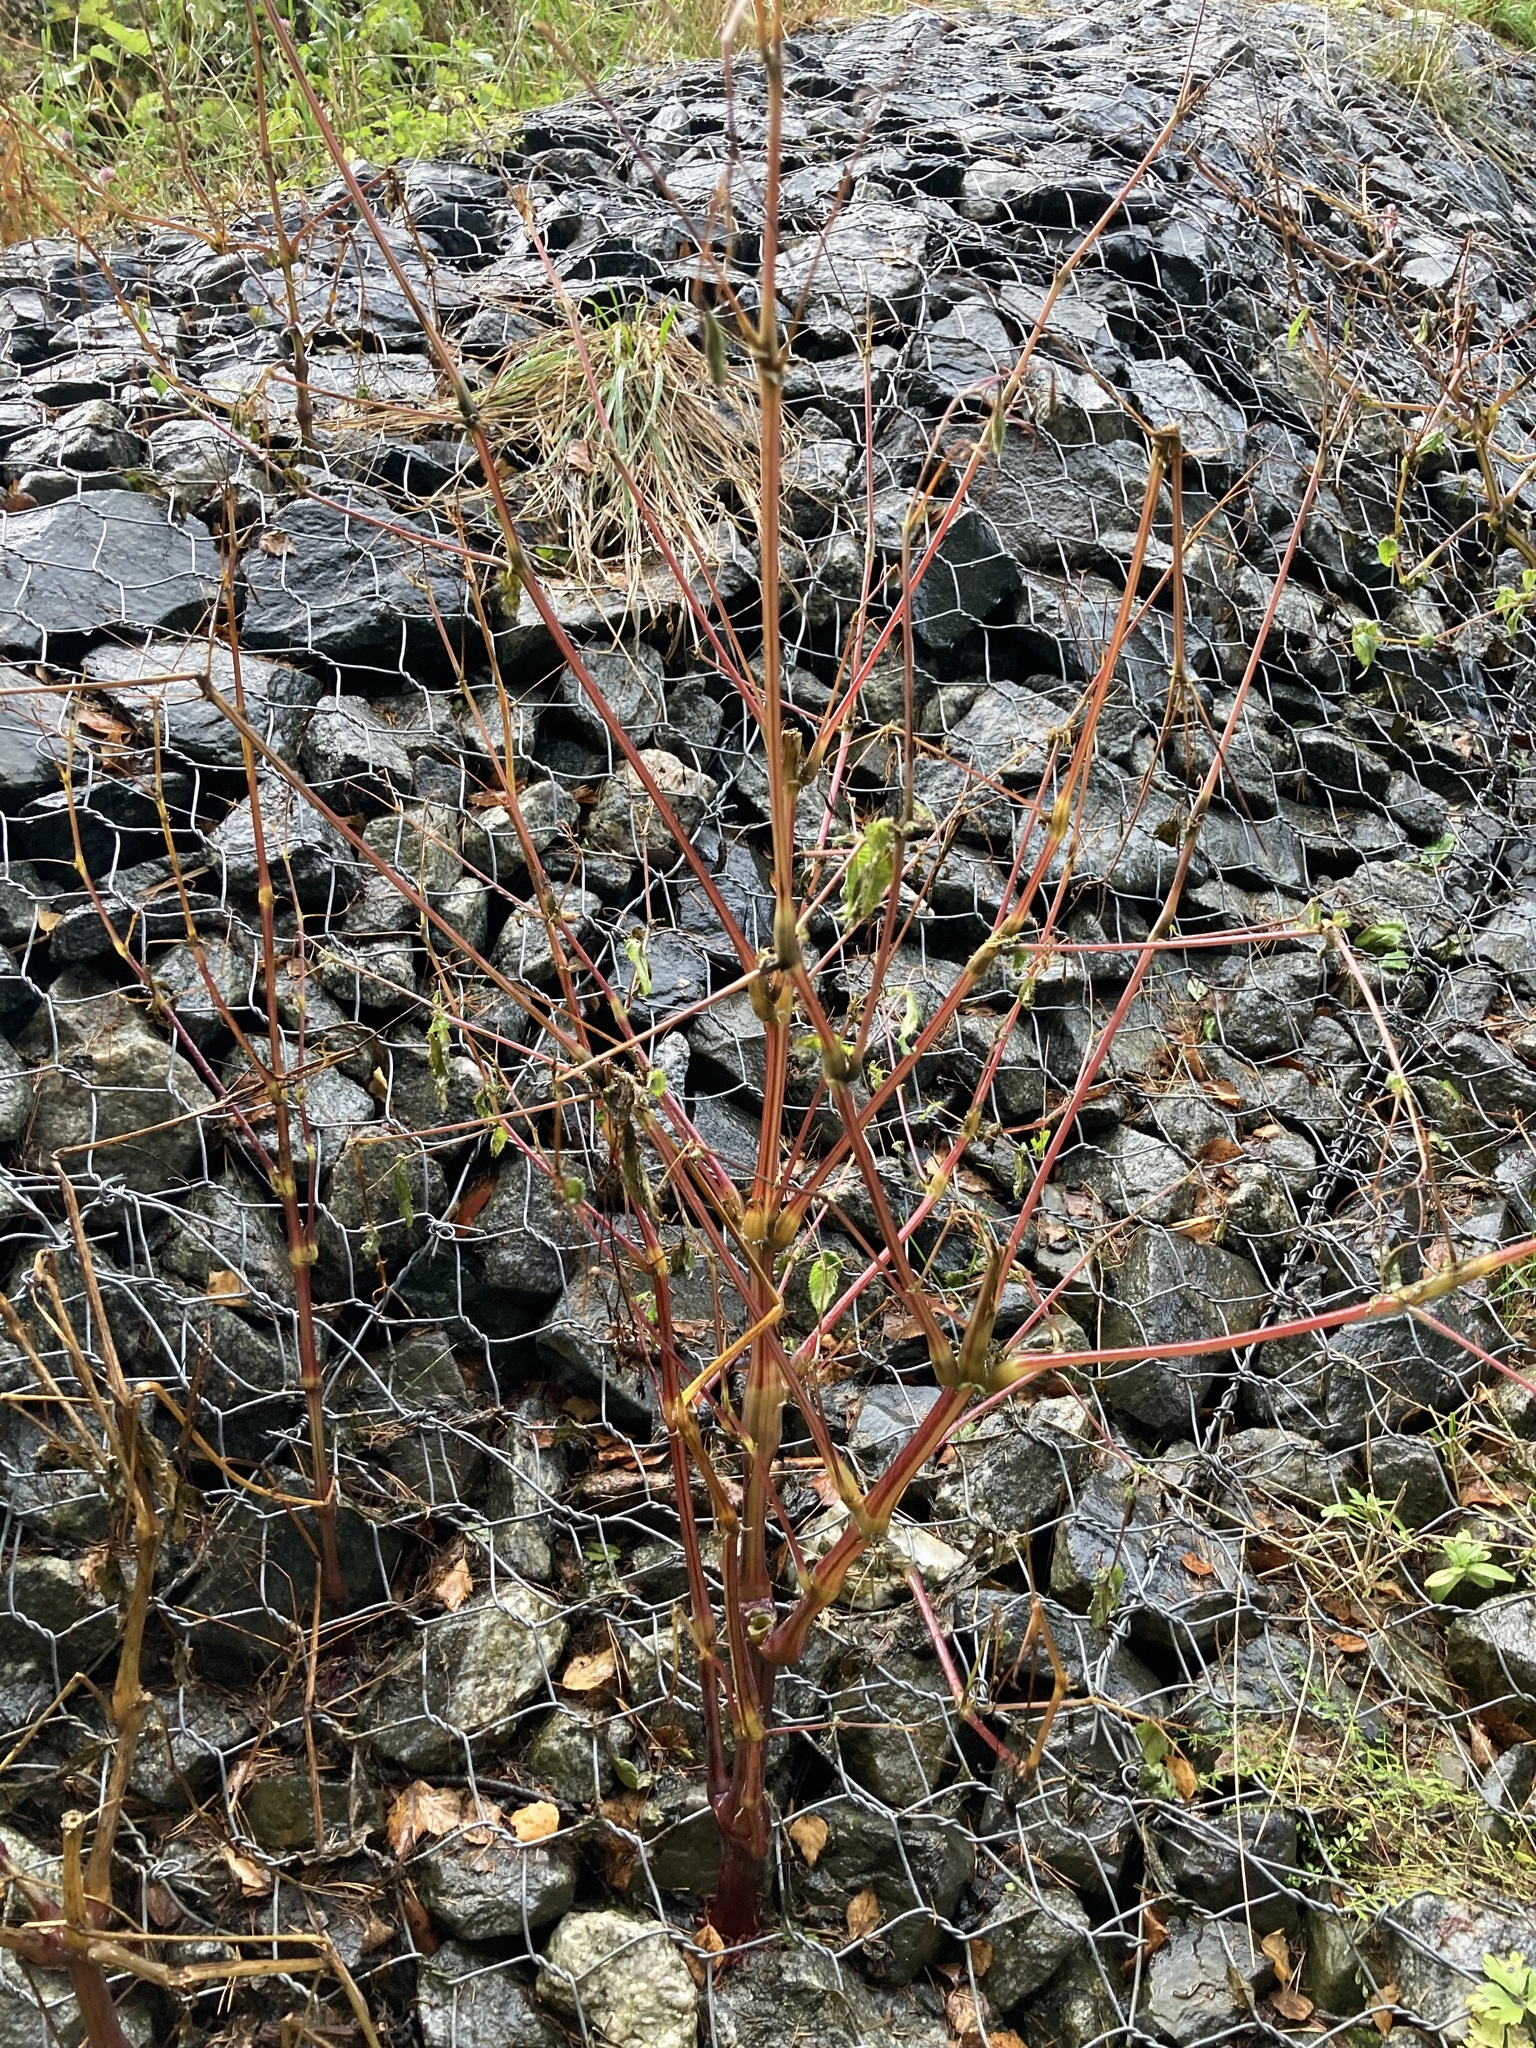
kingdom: Plantae
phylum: Tracheophyta
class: Magnoliopsida
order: Ericales
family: Balsaminaceae
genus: Impatiens
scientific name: Impatiens glandulifera
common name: Himalayan balsam
